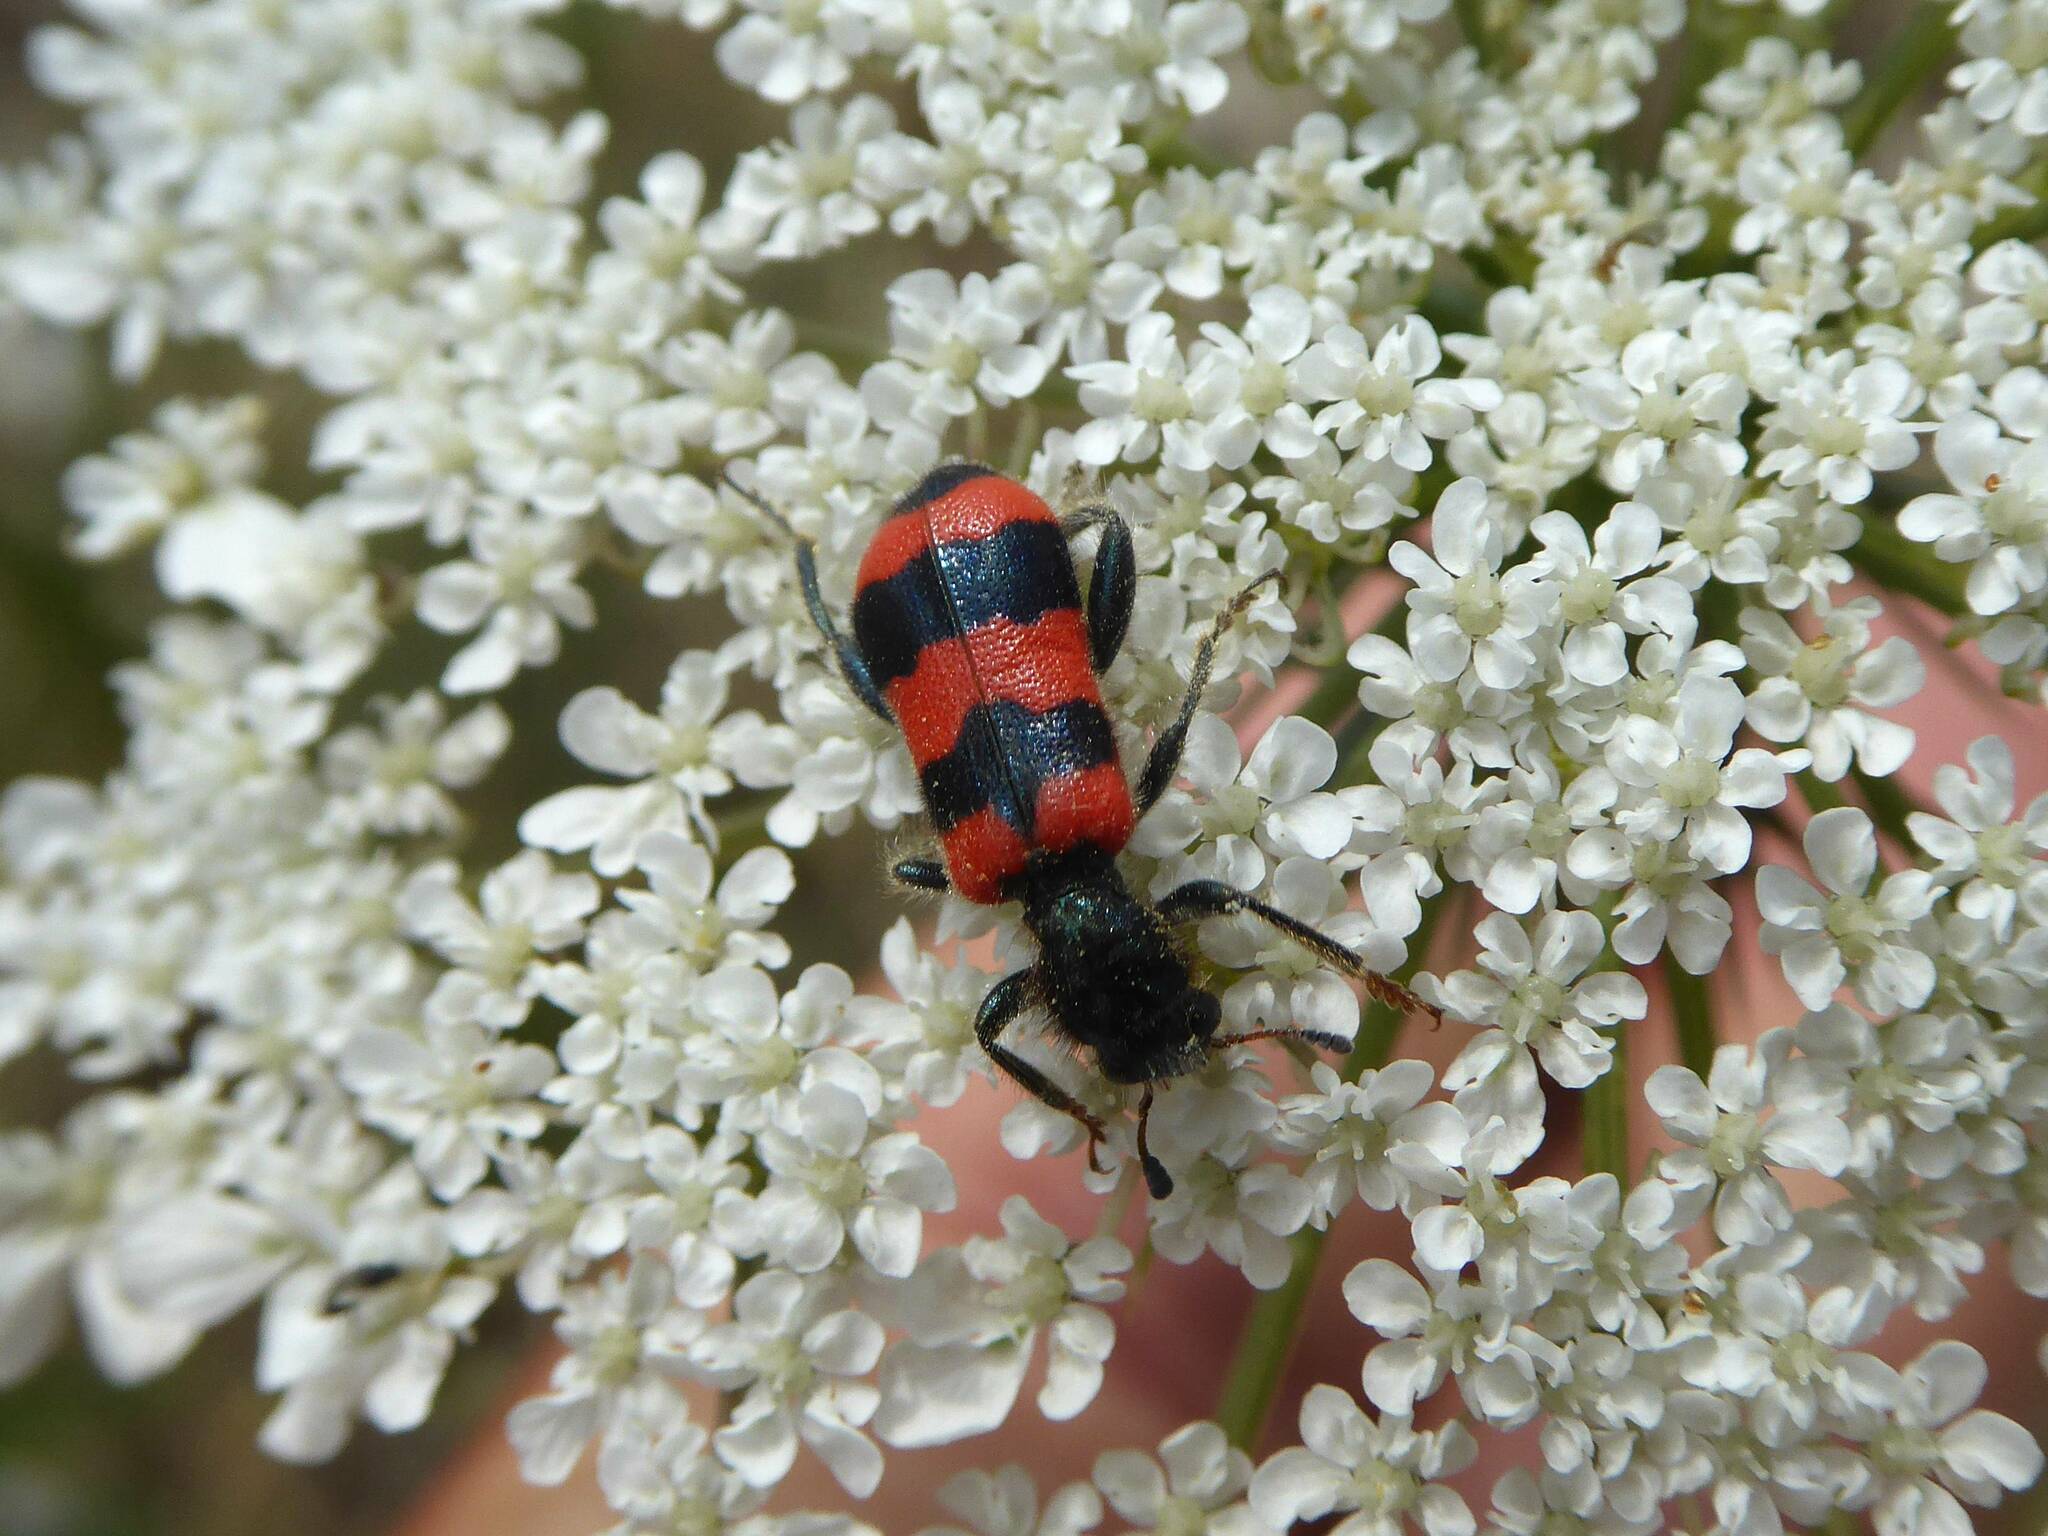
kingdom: Animalia
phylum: Arthropoda
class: Insecta
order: Coleoptera
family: Cleridae
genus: Trichodes
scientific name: Trichodes apiarius
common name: Bee-eating beetle
